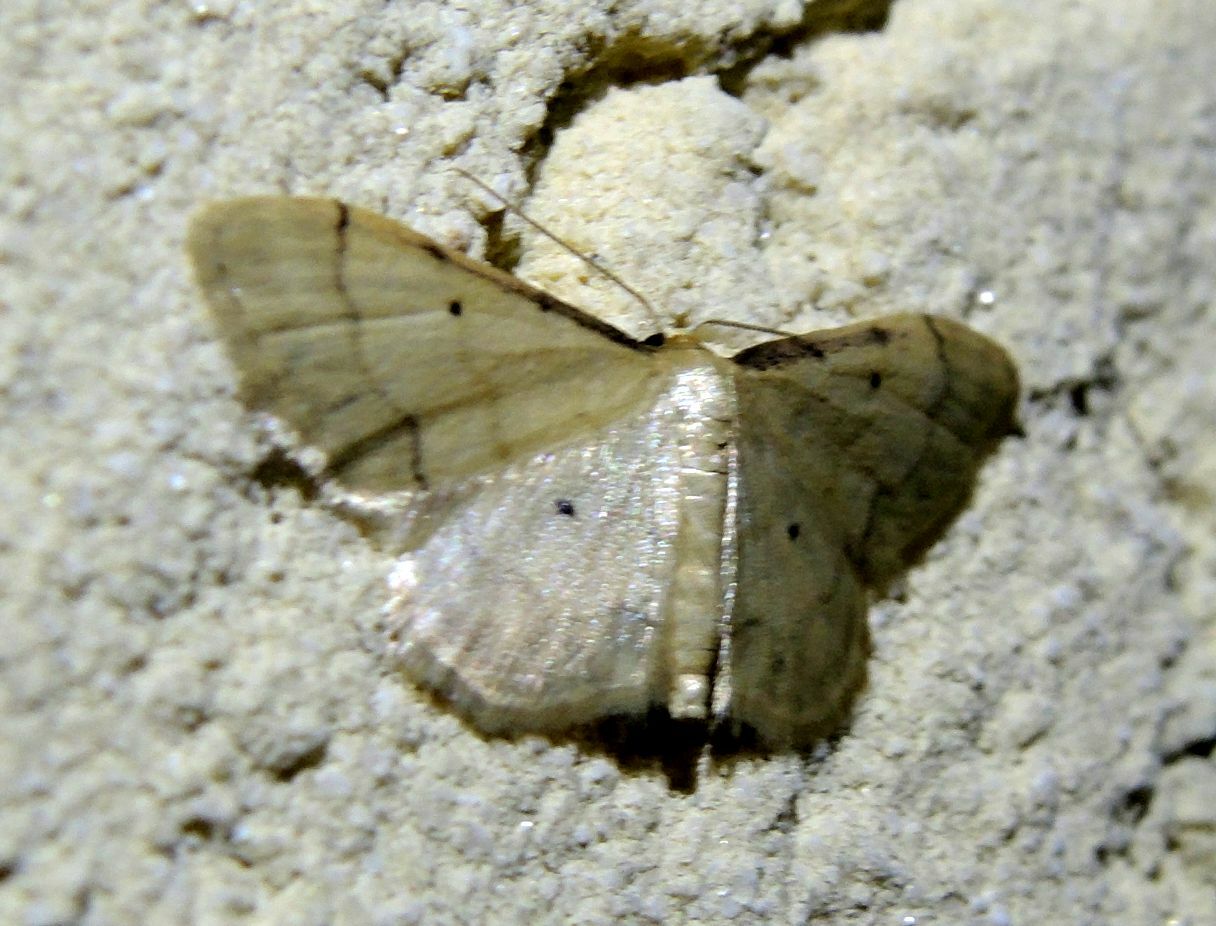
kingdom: Animalia
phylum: Arthropoda
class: Insecta
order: Lepidoptera
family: Geometridae
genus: Idaea
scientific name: Idaea politaria
